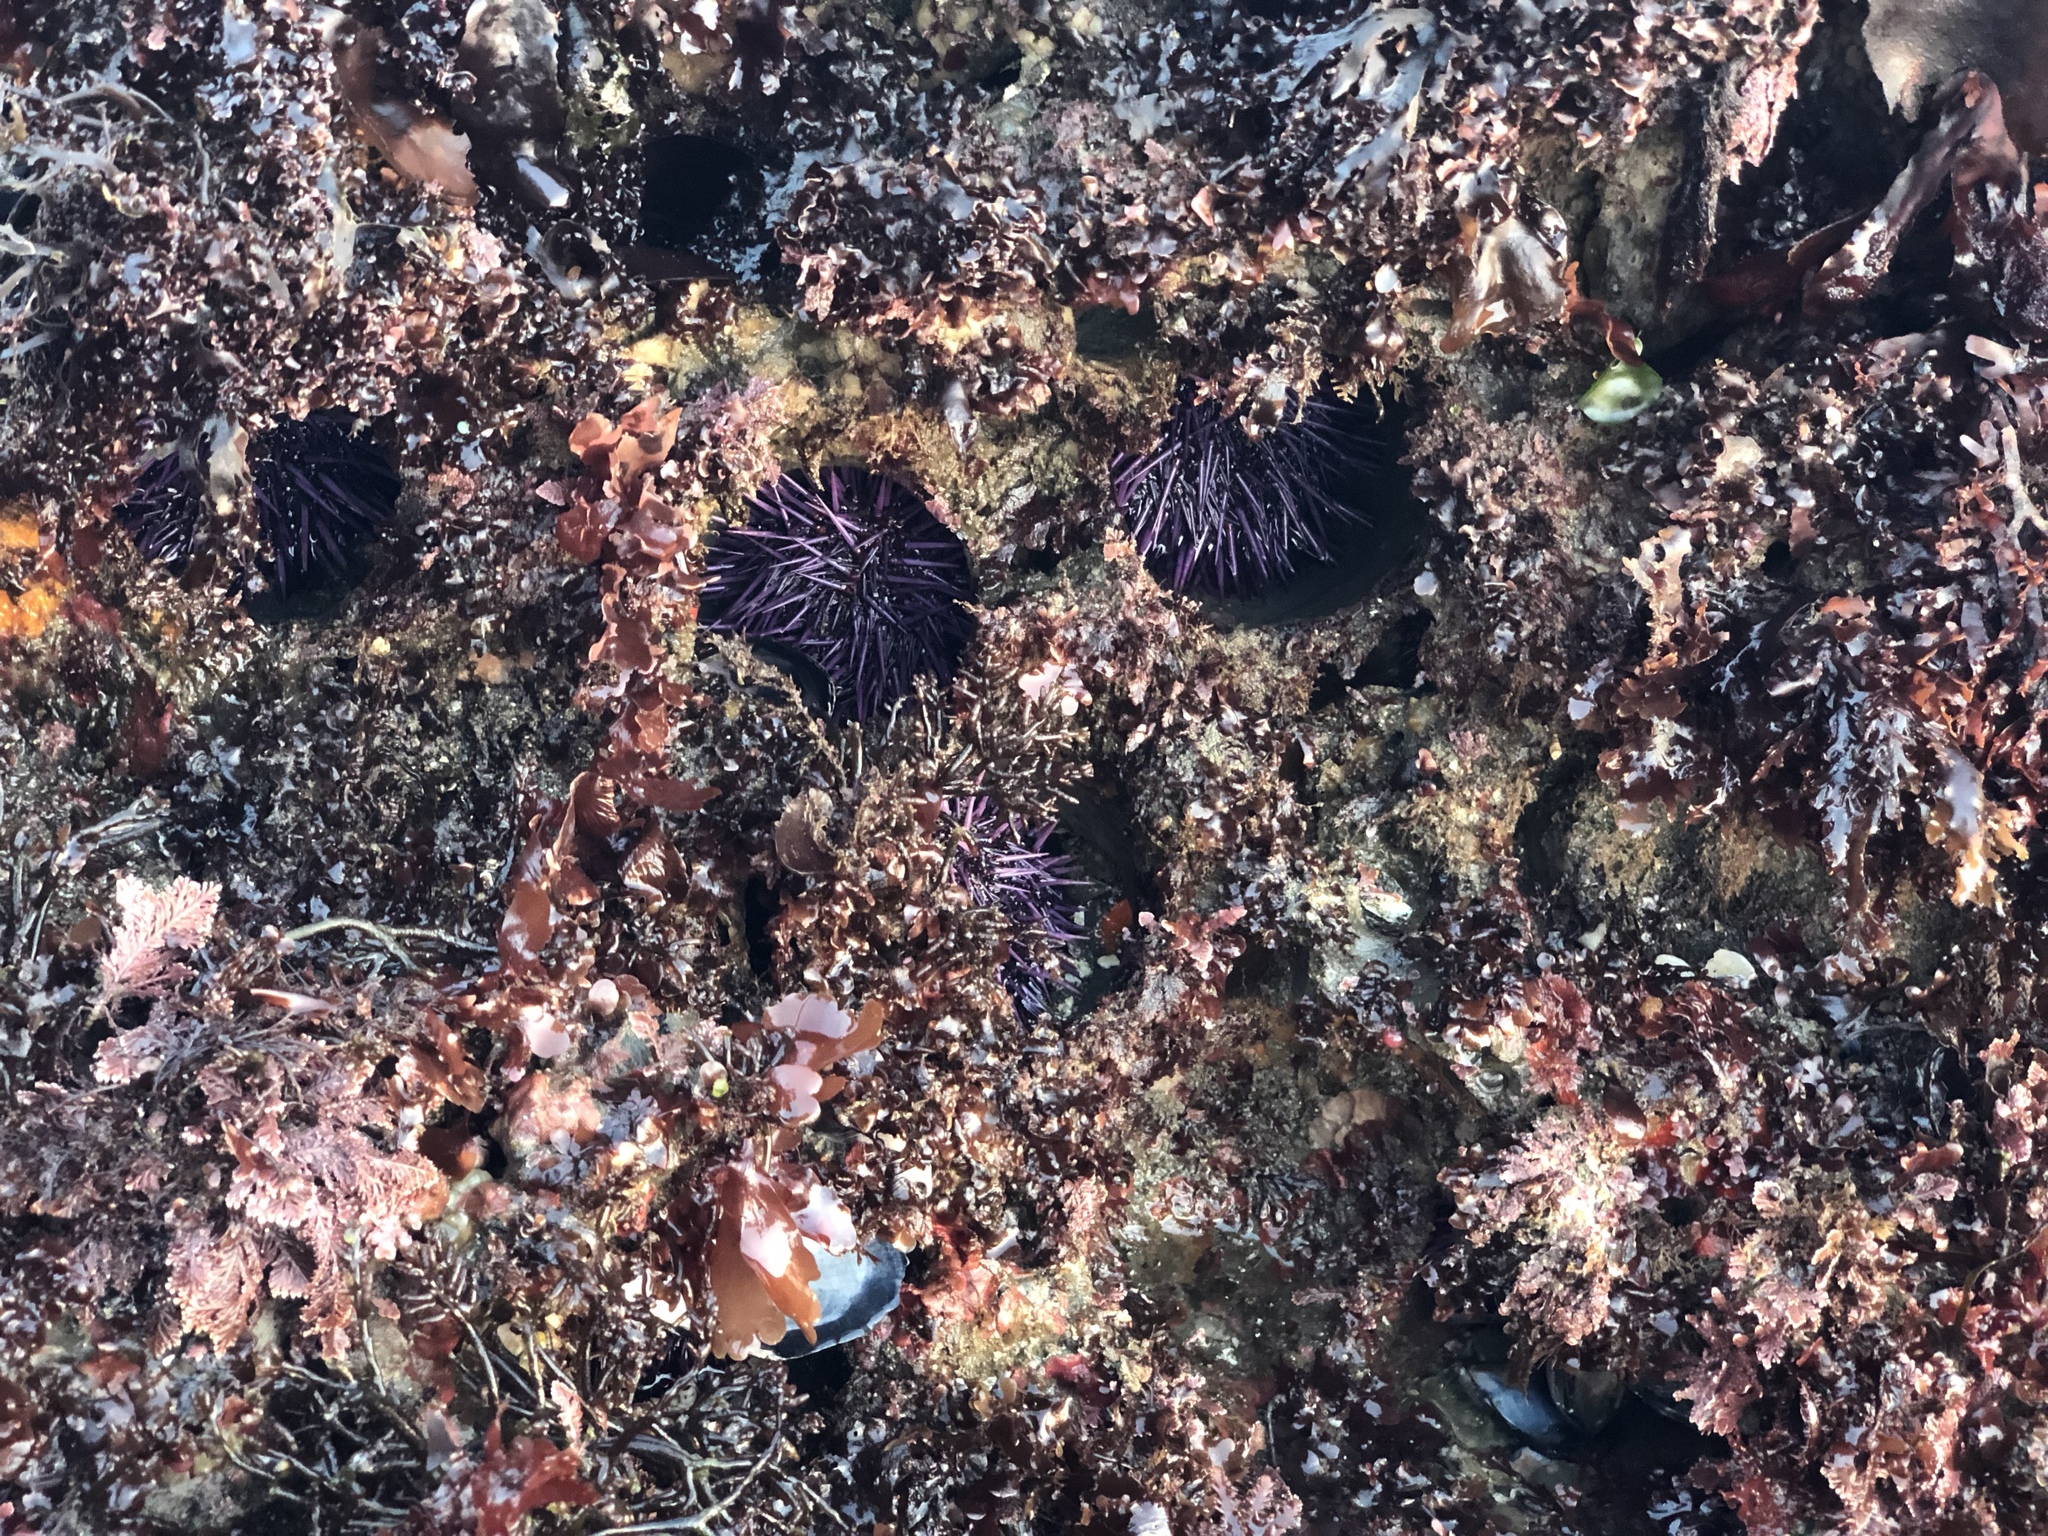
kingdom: Animalia
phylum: Echinodermata
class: Echinoidea
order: Camarodonta
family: Strongylocentrotidae
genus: Strongylocentrotus
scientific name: Strongylocentrotus purpuratus
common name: Purple sea urchin
